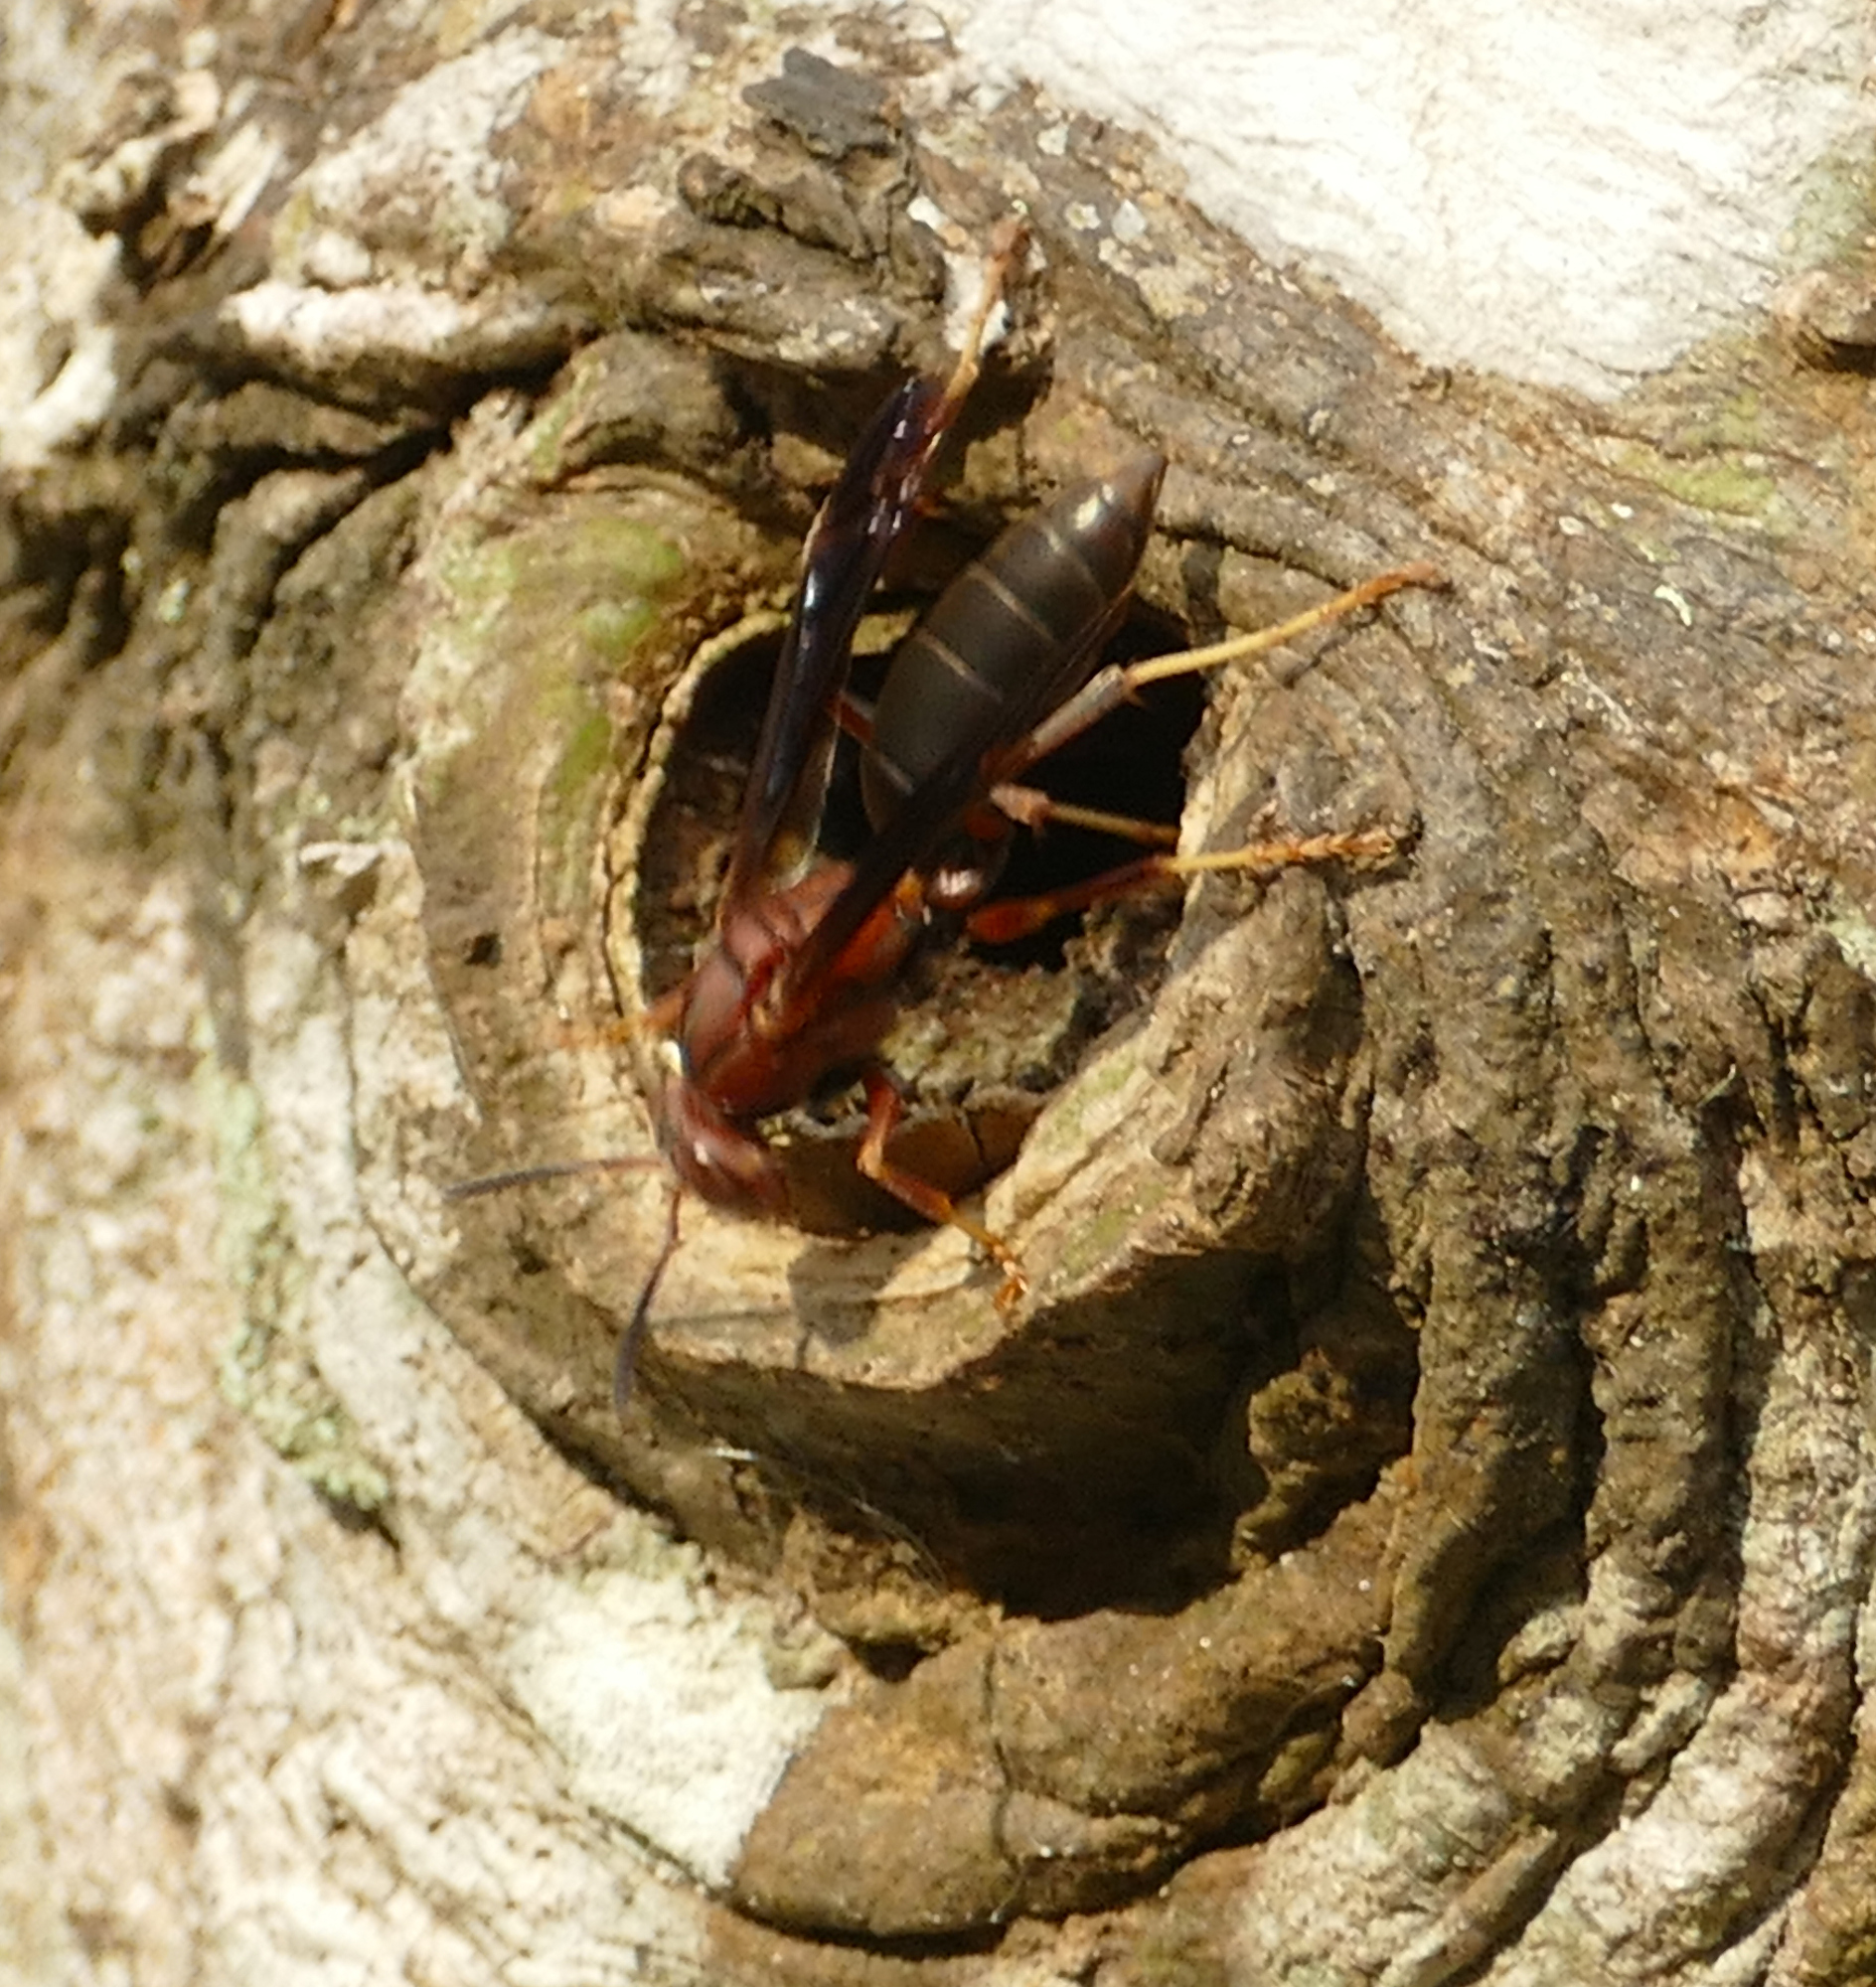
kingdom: Animalia
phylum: Arthropoda
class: Insecta
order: Hymenoptera
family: Eumenidae
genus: Polistes
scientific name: Polistes metricus
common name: Metric paper wasp
